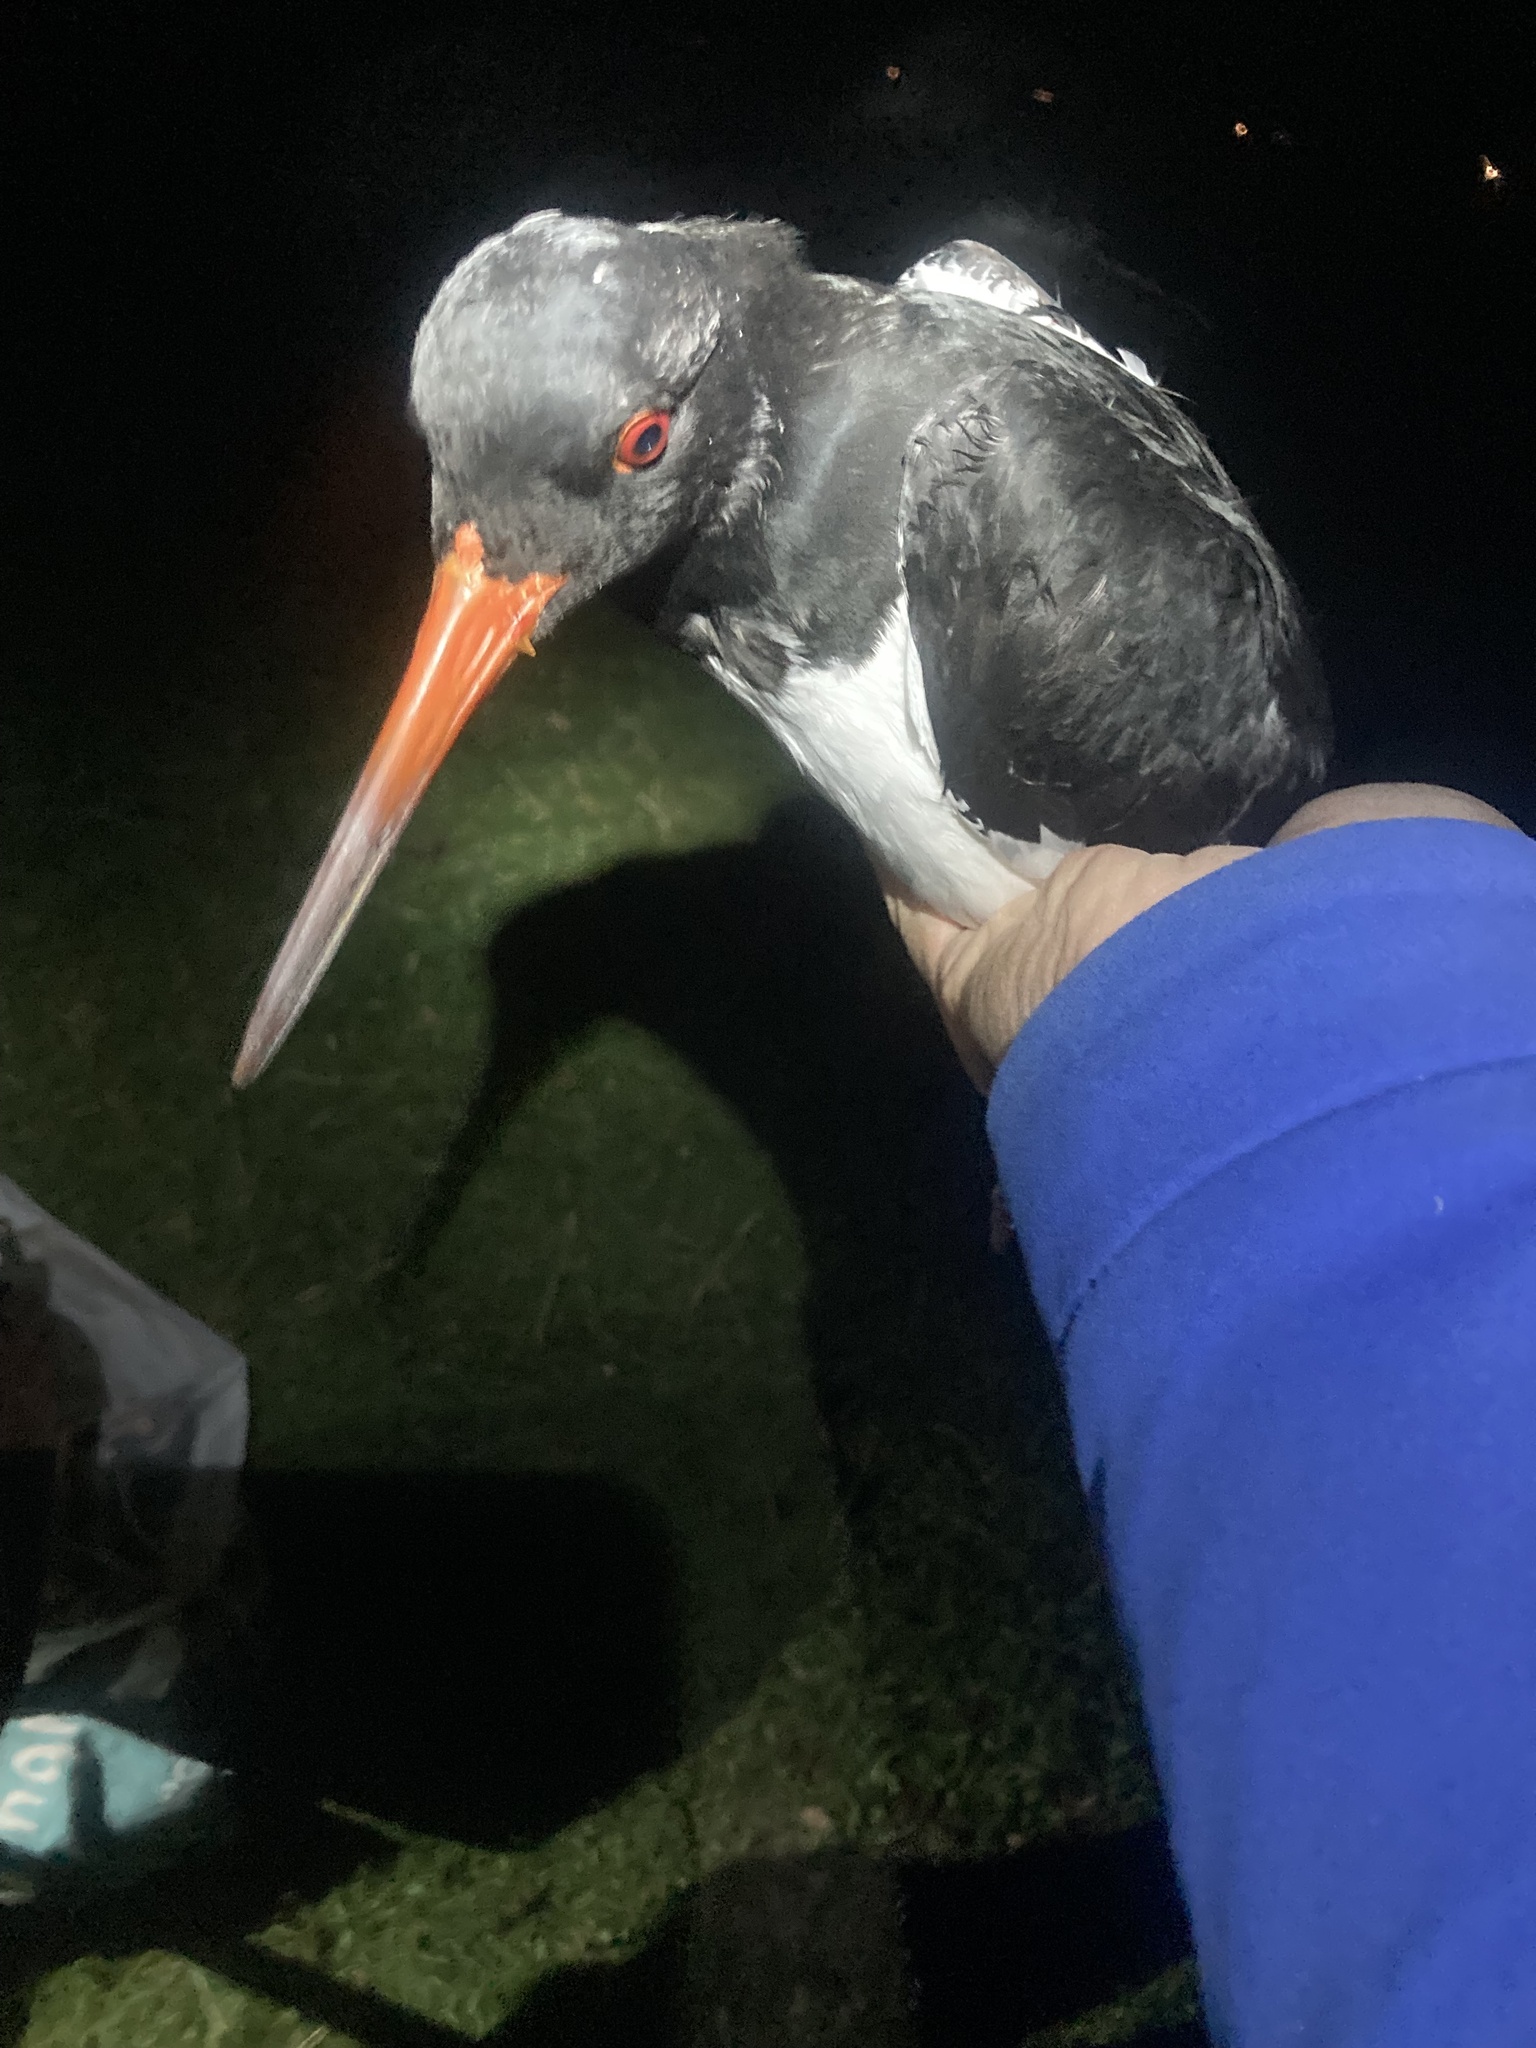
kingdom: Animalia
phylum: Chordata
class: Aves
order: Charadriiformes
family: Haematopodidae
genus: Haematopus
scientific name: Haematopus ostralegus
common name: Eurasian oystercatcher
